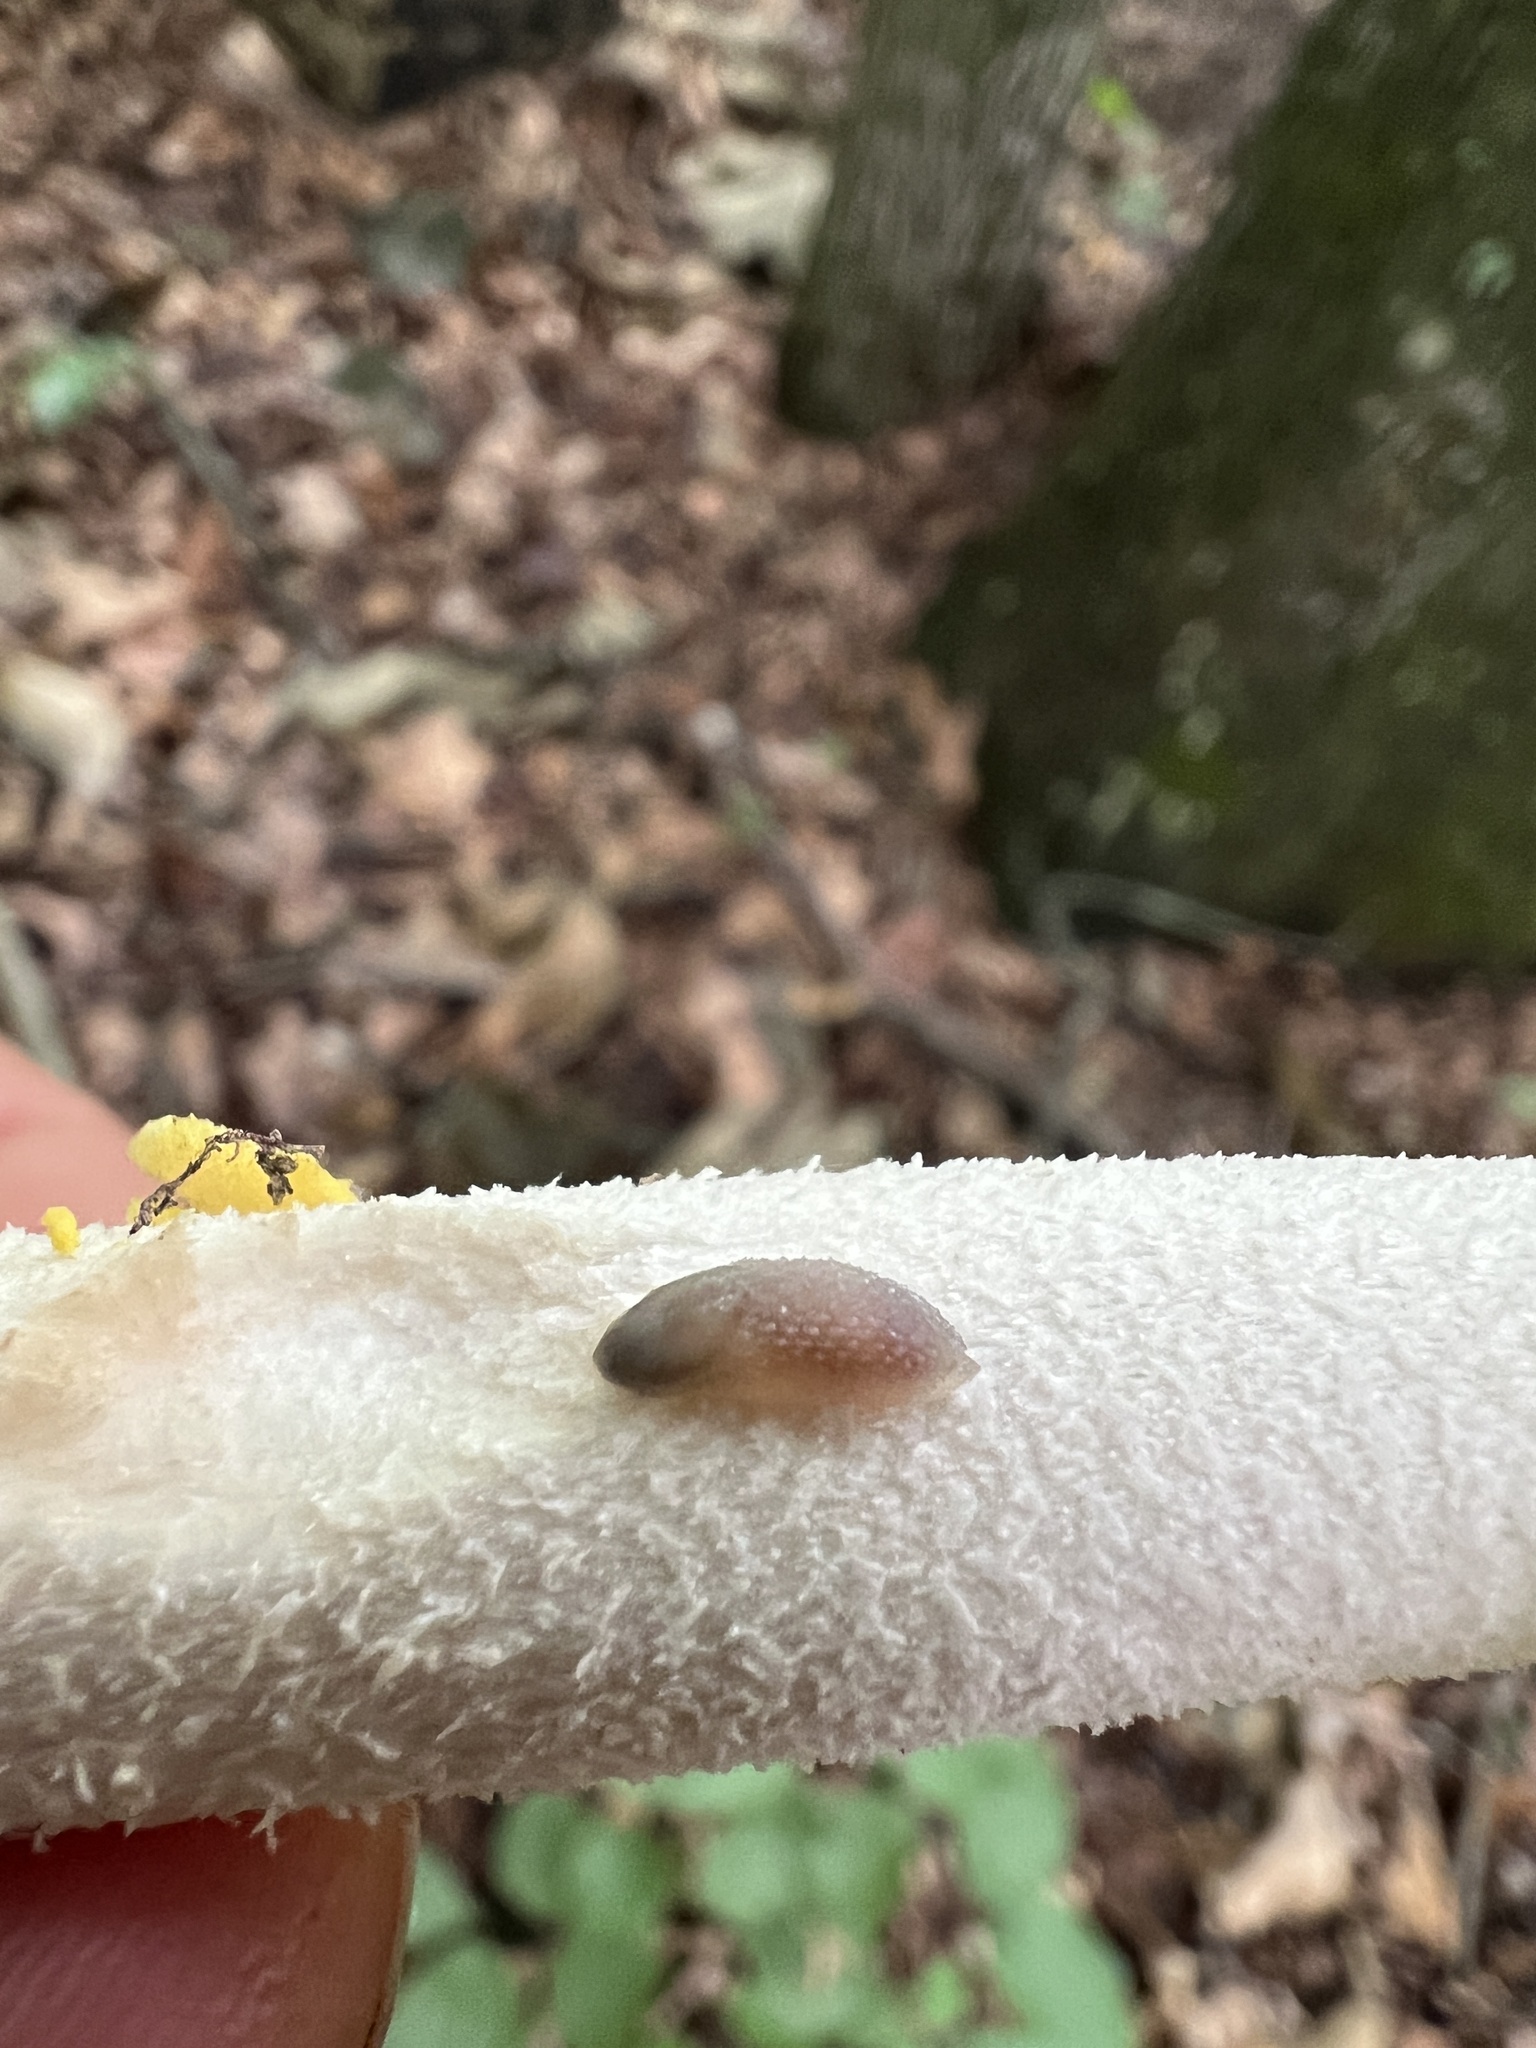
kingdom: Animalia
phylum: Mollusca
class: Gastropoda
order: Stylommatophora
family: Arionidae
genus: Arion
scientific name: Arion intermedius
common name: Hedgehog slug
